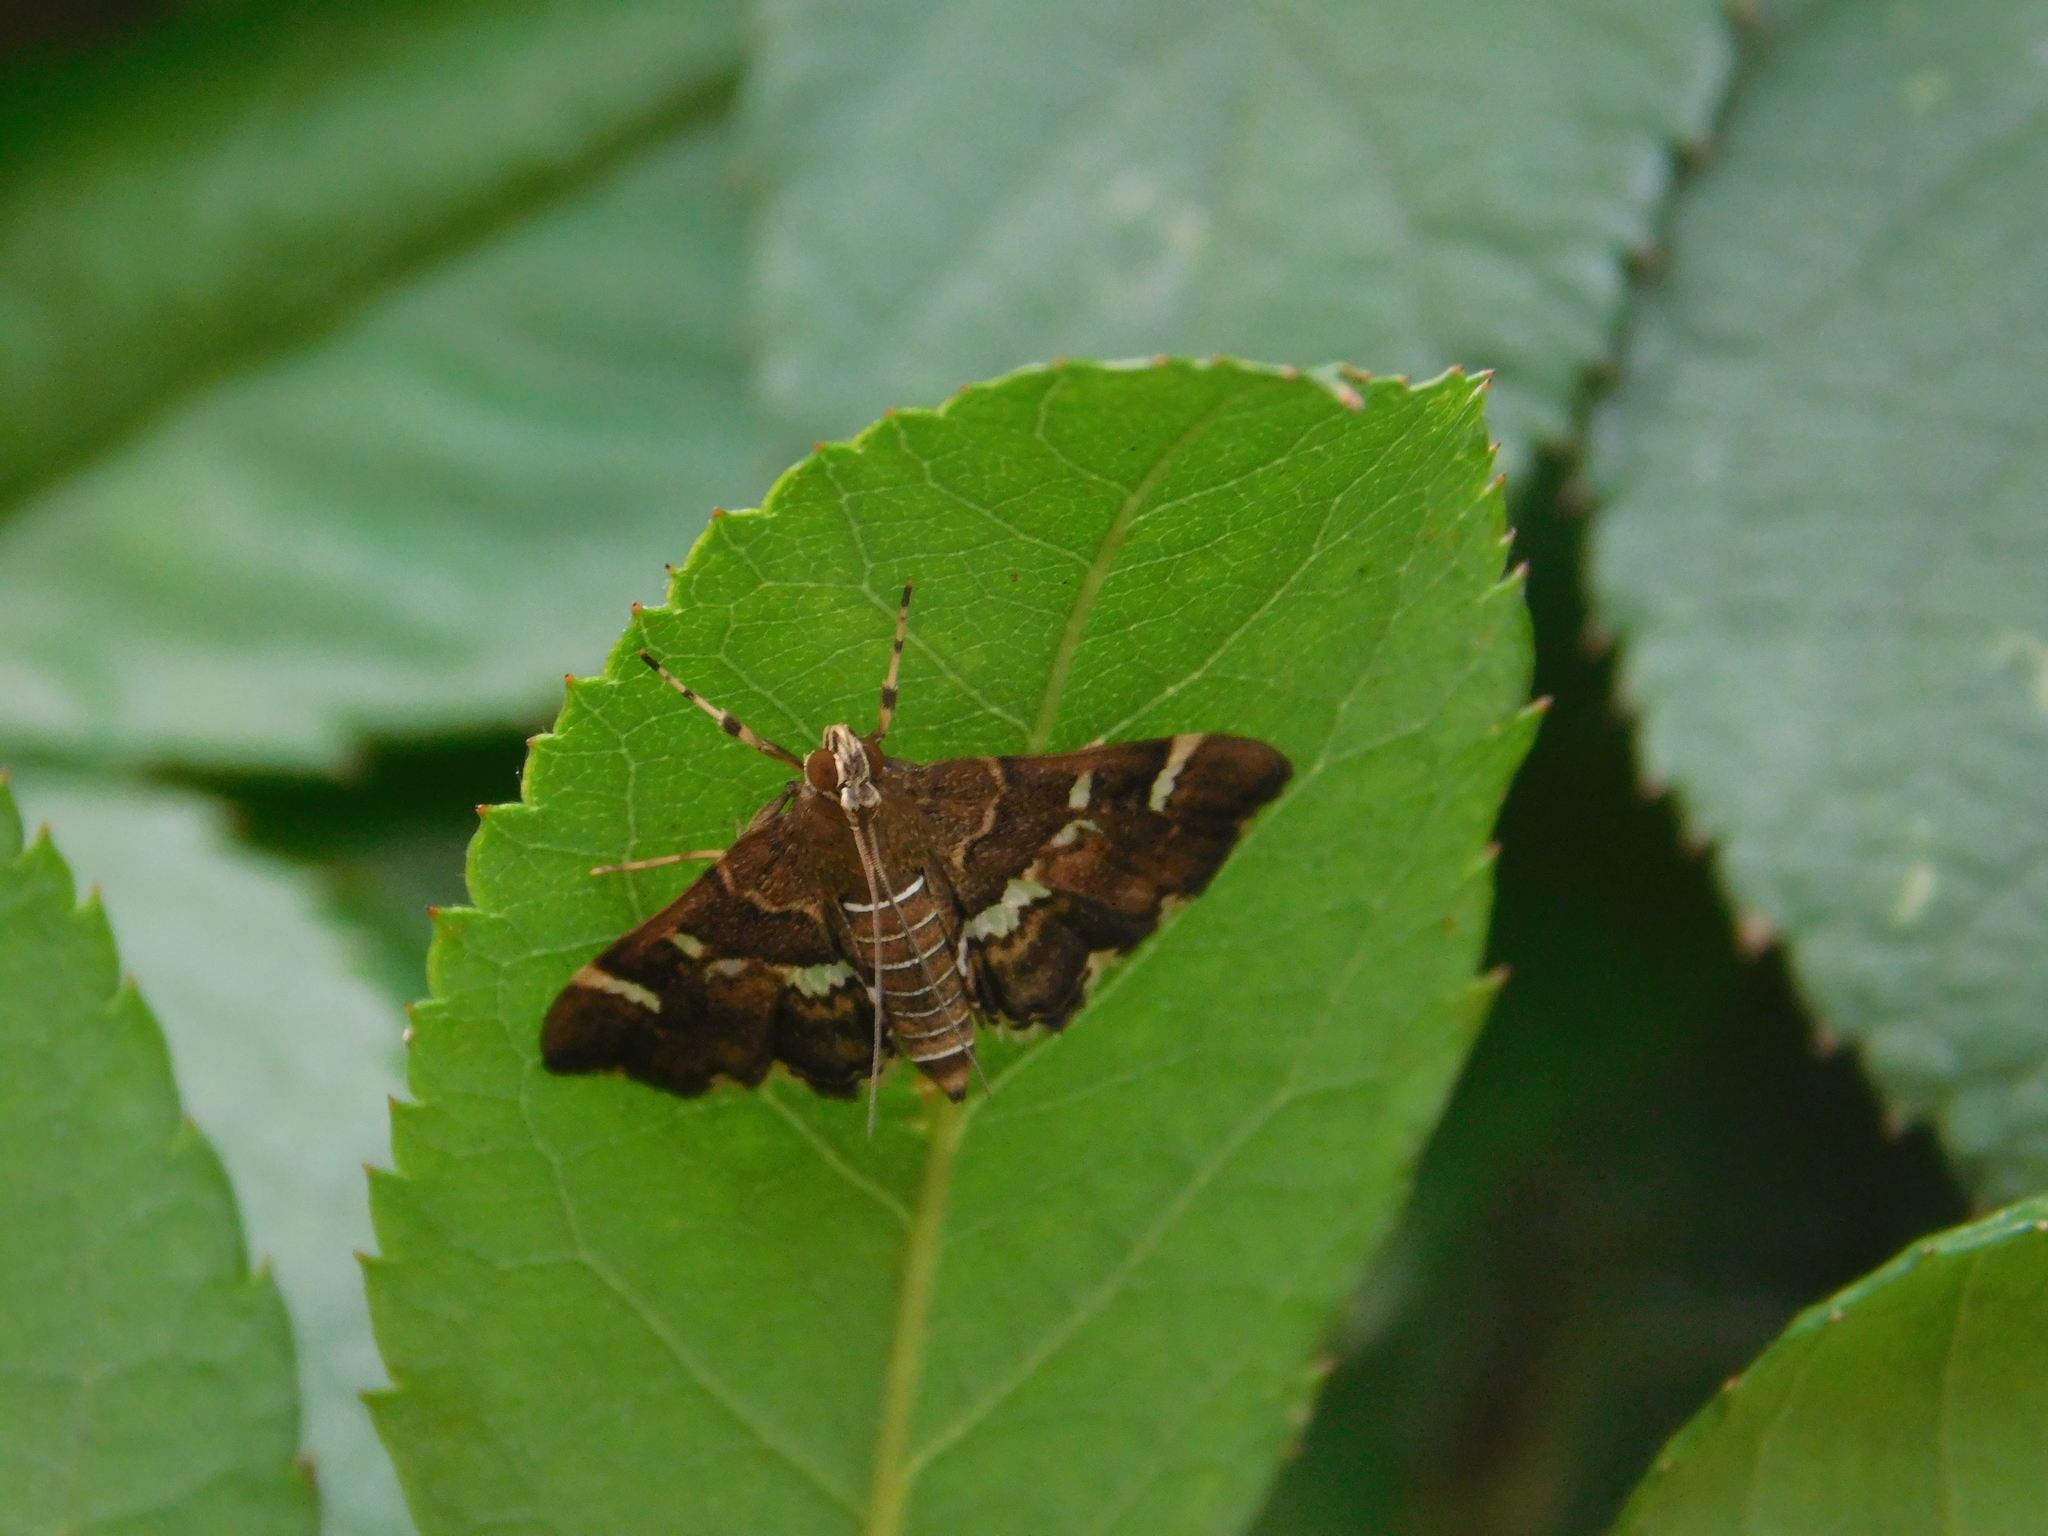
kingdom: Animalia
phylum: Arthropoda
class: Insecta
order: Lepidoptera
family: Crambidae
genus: Hymenia
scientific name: Hymenia perspectalis
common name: Spotted beet webworm
